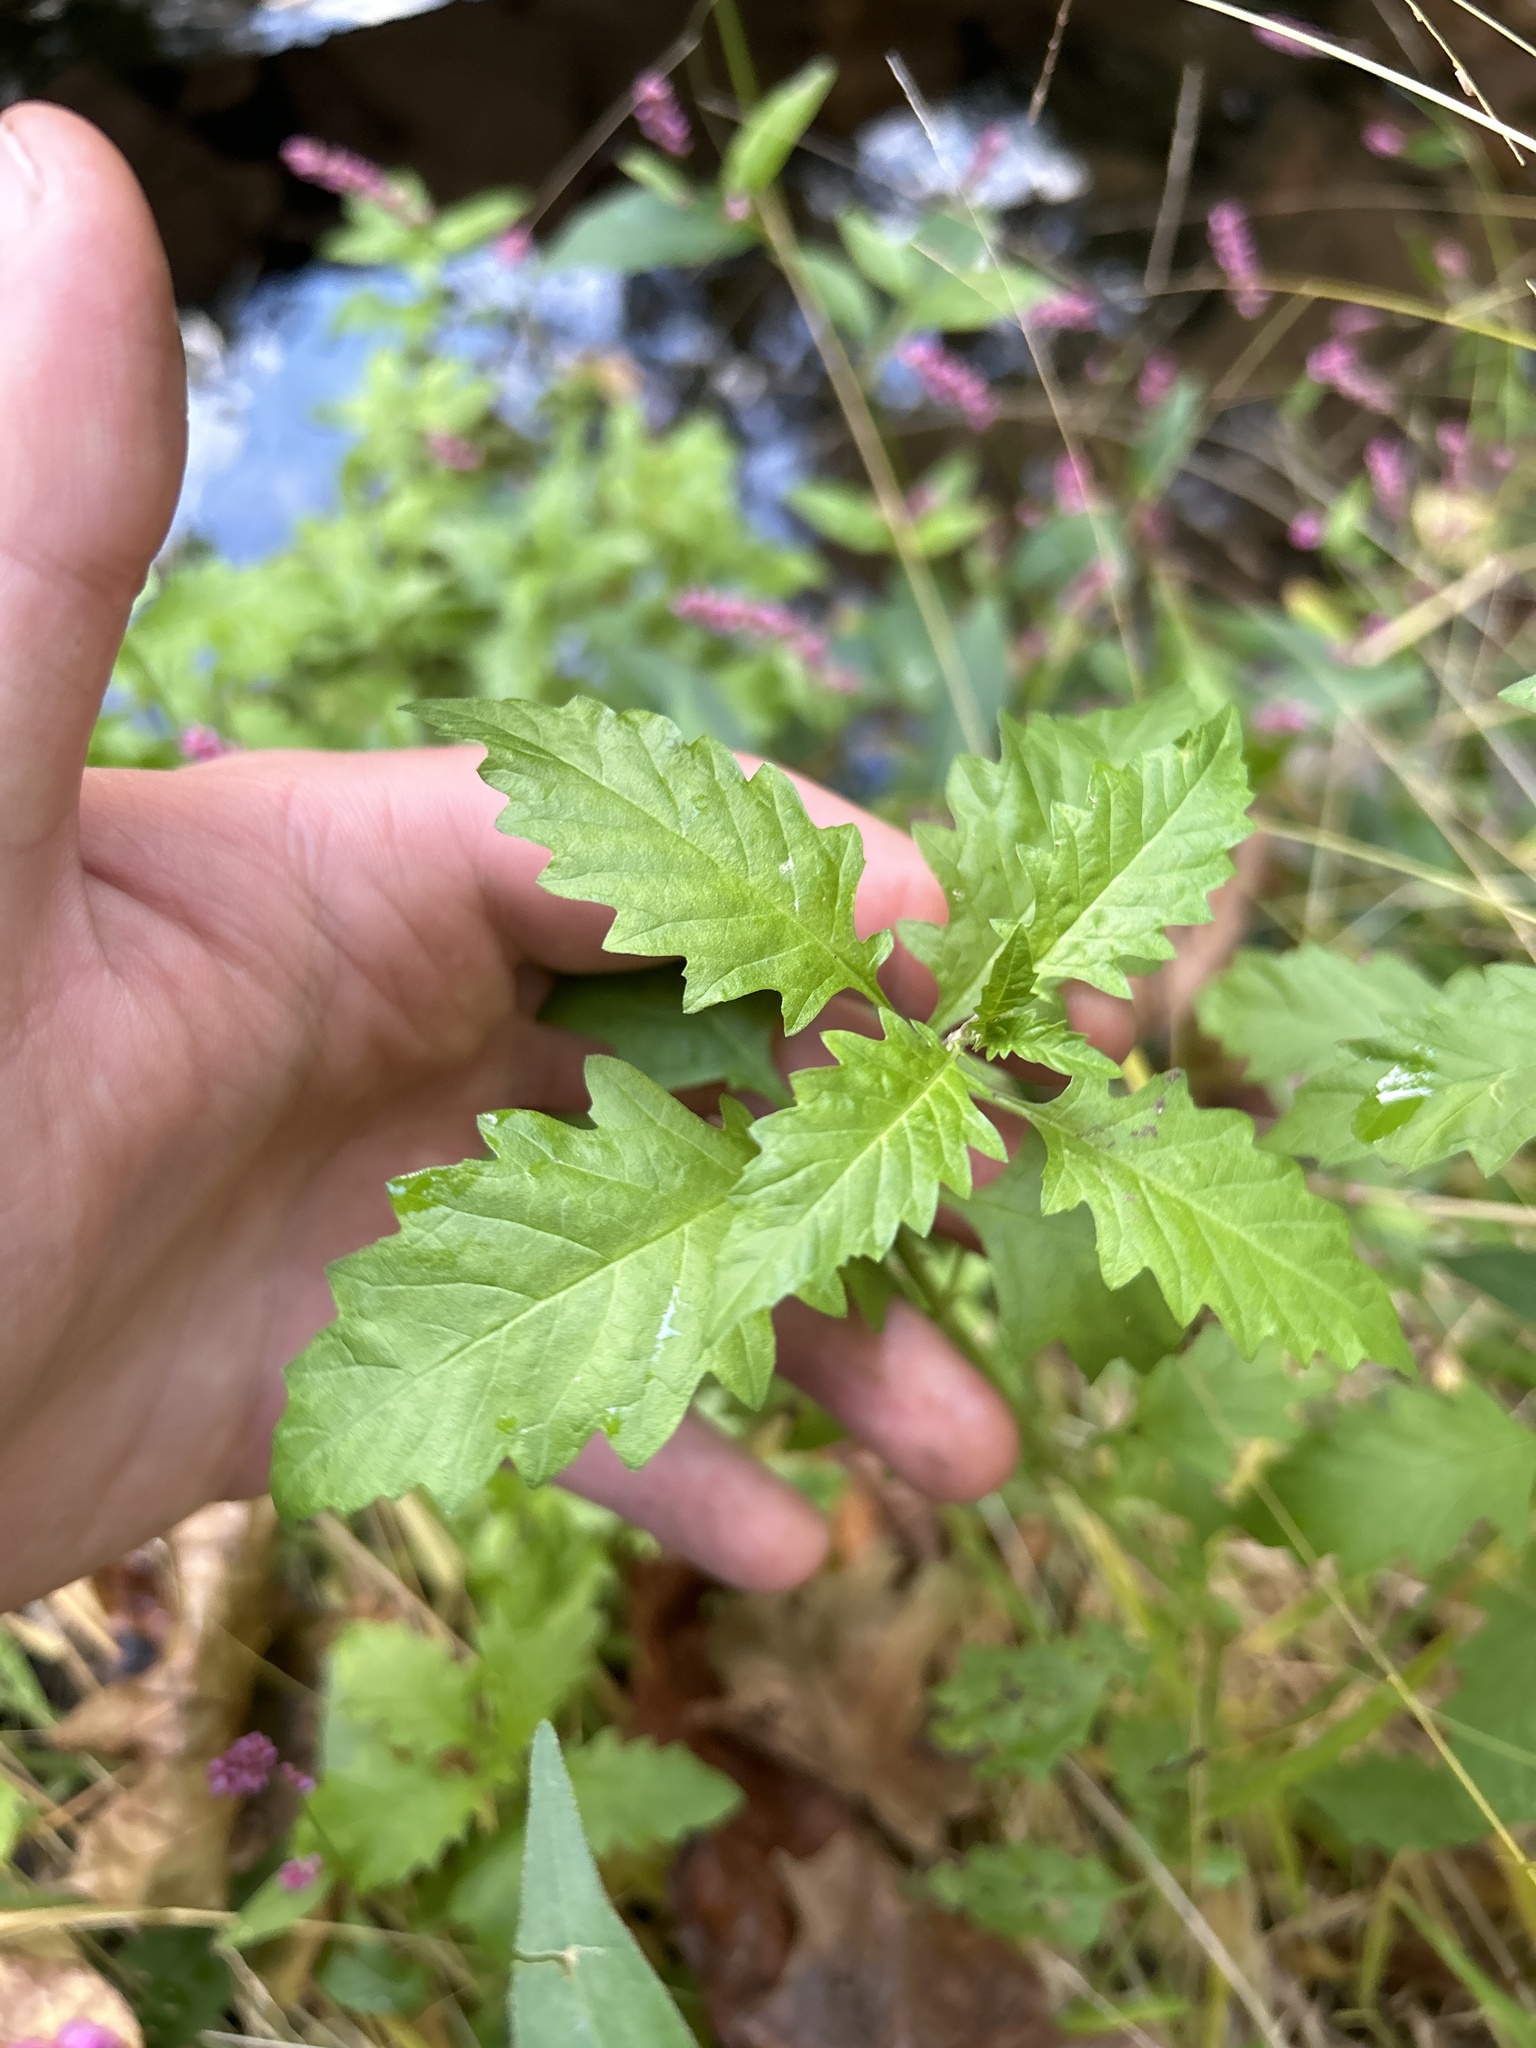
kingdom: Plantae
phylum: Tracheophyta
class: Magnoliopsida
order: Lamiales
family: Lamiaceae
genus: Lycopus
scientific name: Lycopus europaeus
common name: European bugleweed
